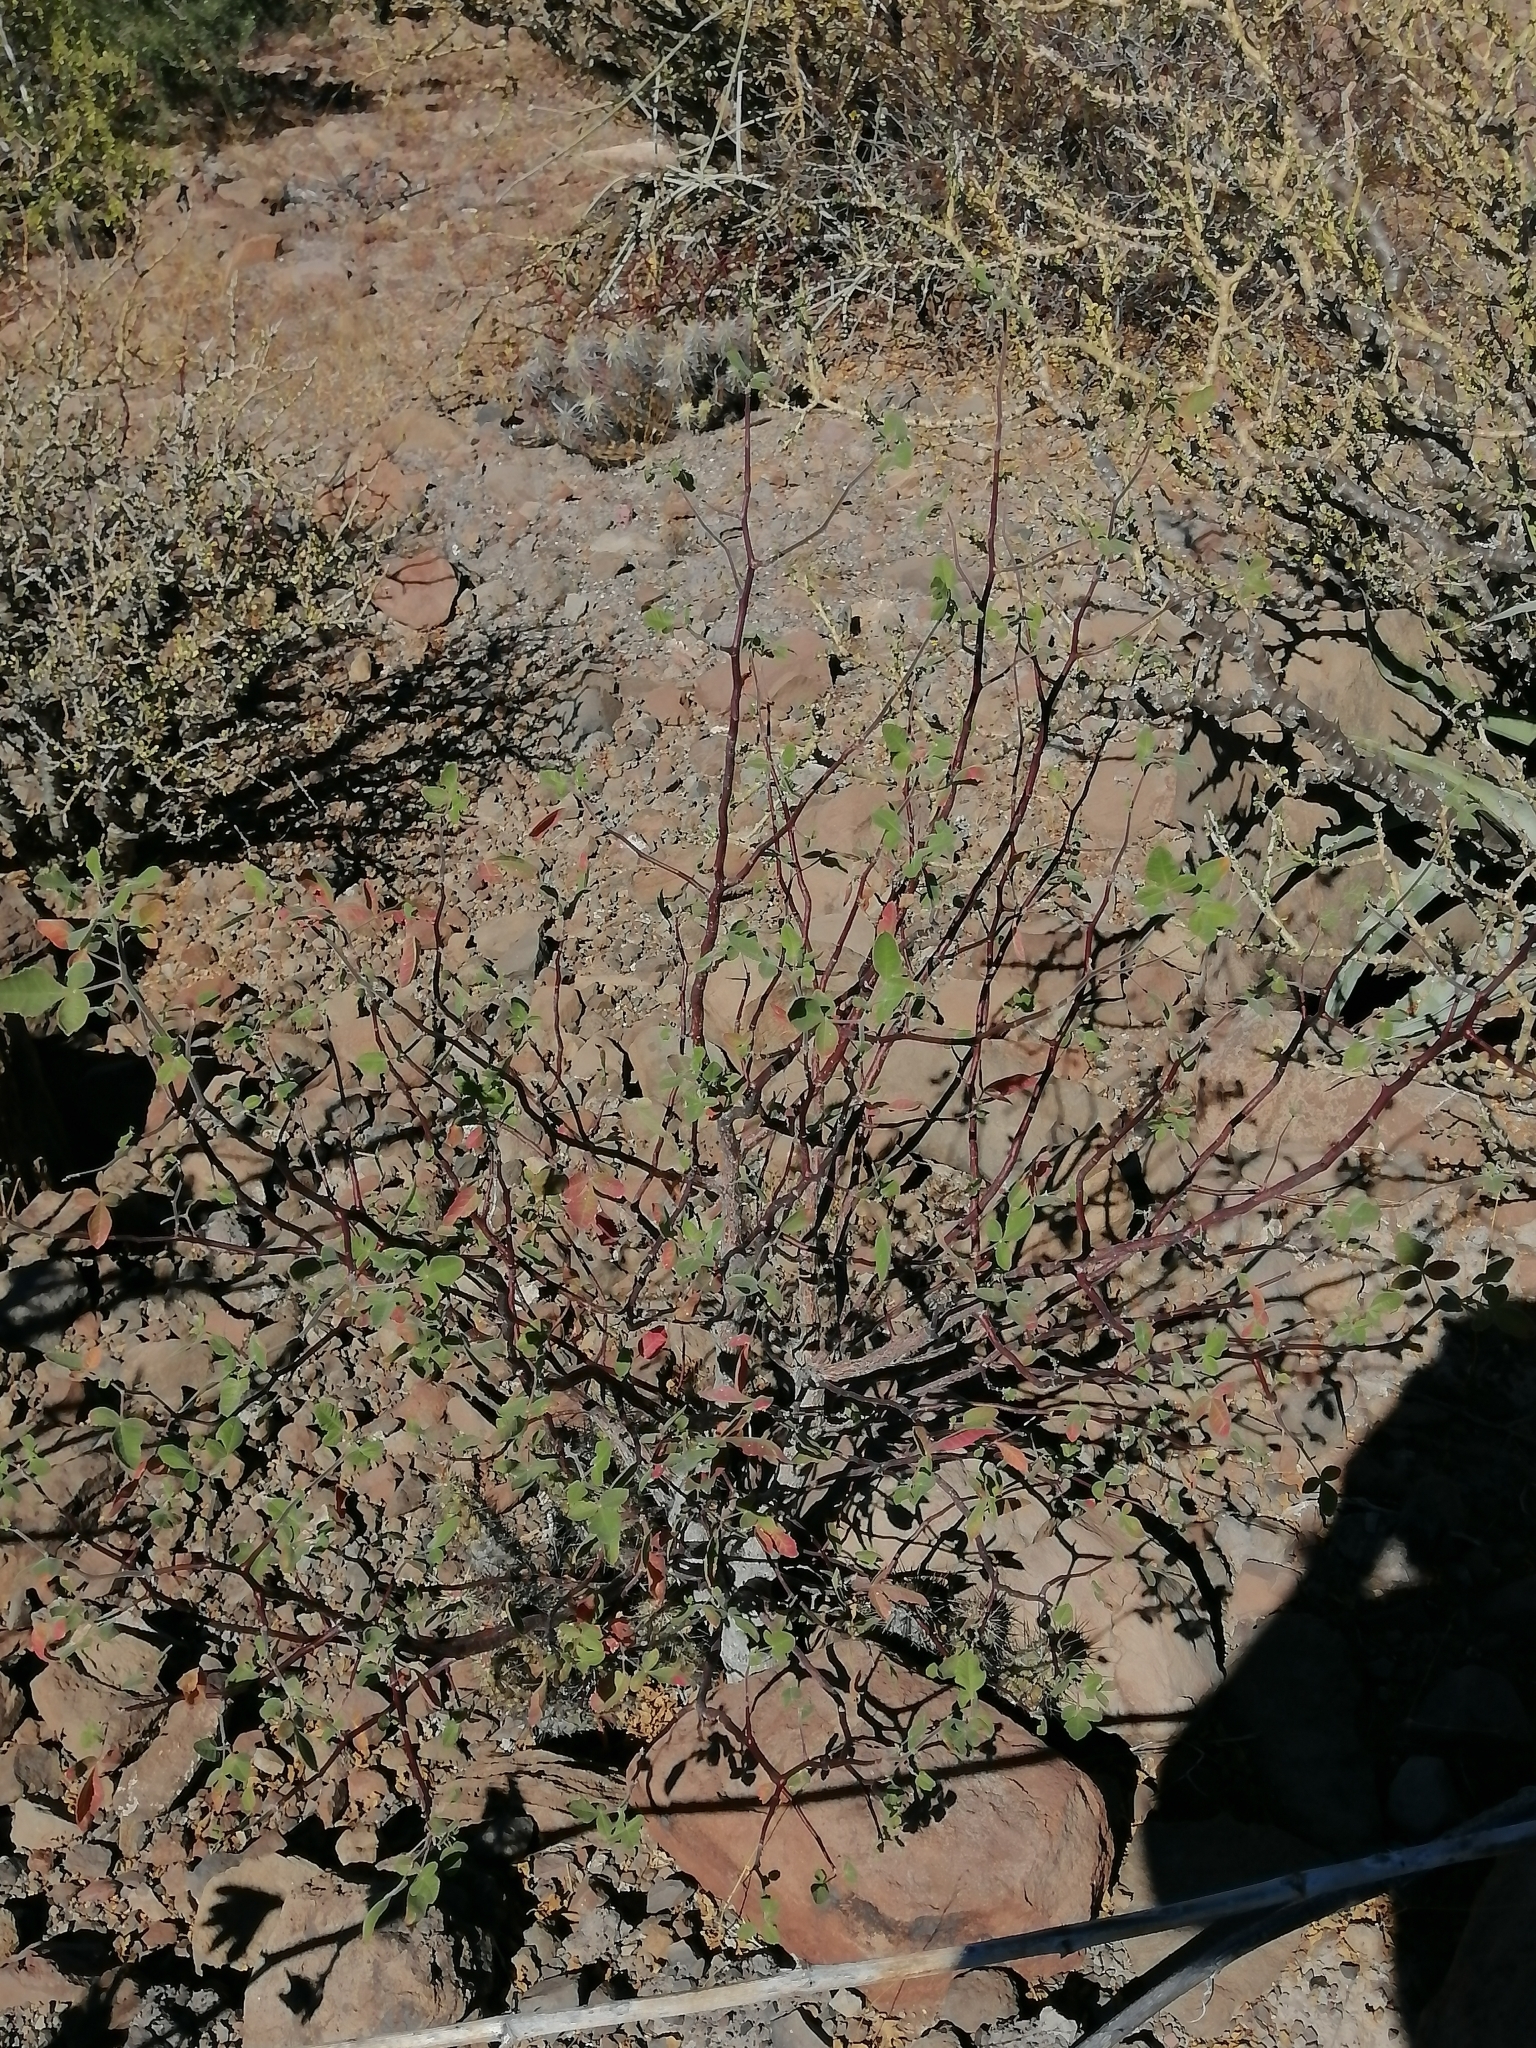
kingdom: Plantae
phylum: Tracheophyta
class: Magnoliopsida
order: Sapindales
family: Burseraceae
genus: Bursera
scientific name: Bursera hindsiana
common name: Red elephant tree
